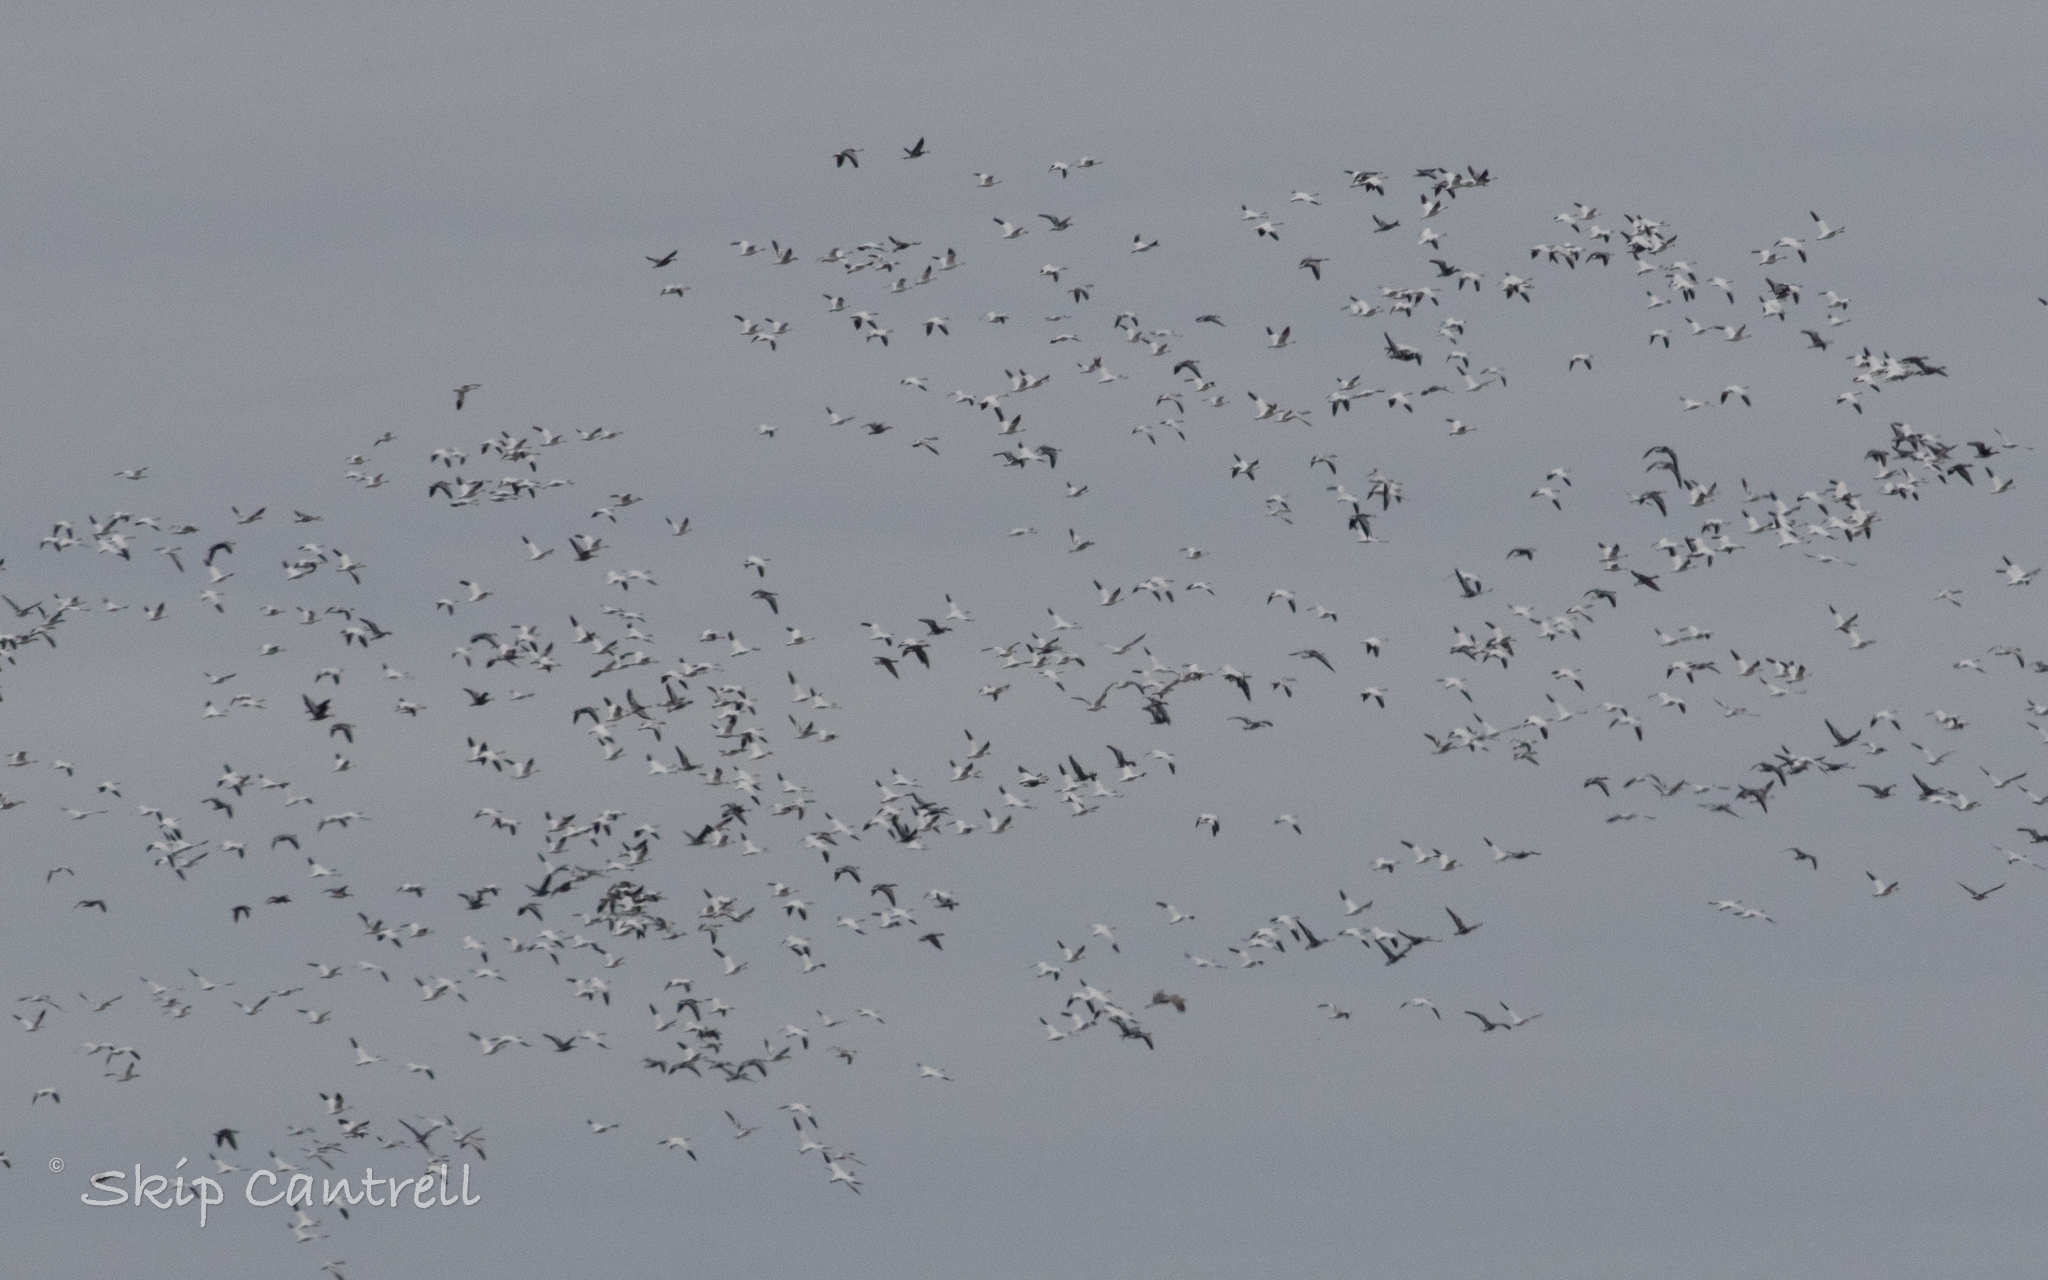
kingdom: Animalia
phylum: Chordata
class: Aves
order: Anseriformes
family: Anatidae
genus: Anser
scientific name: Anser caerulescens
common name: Snow goose
